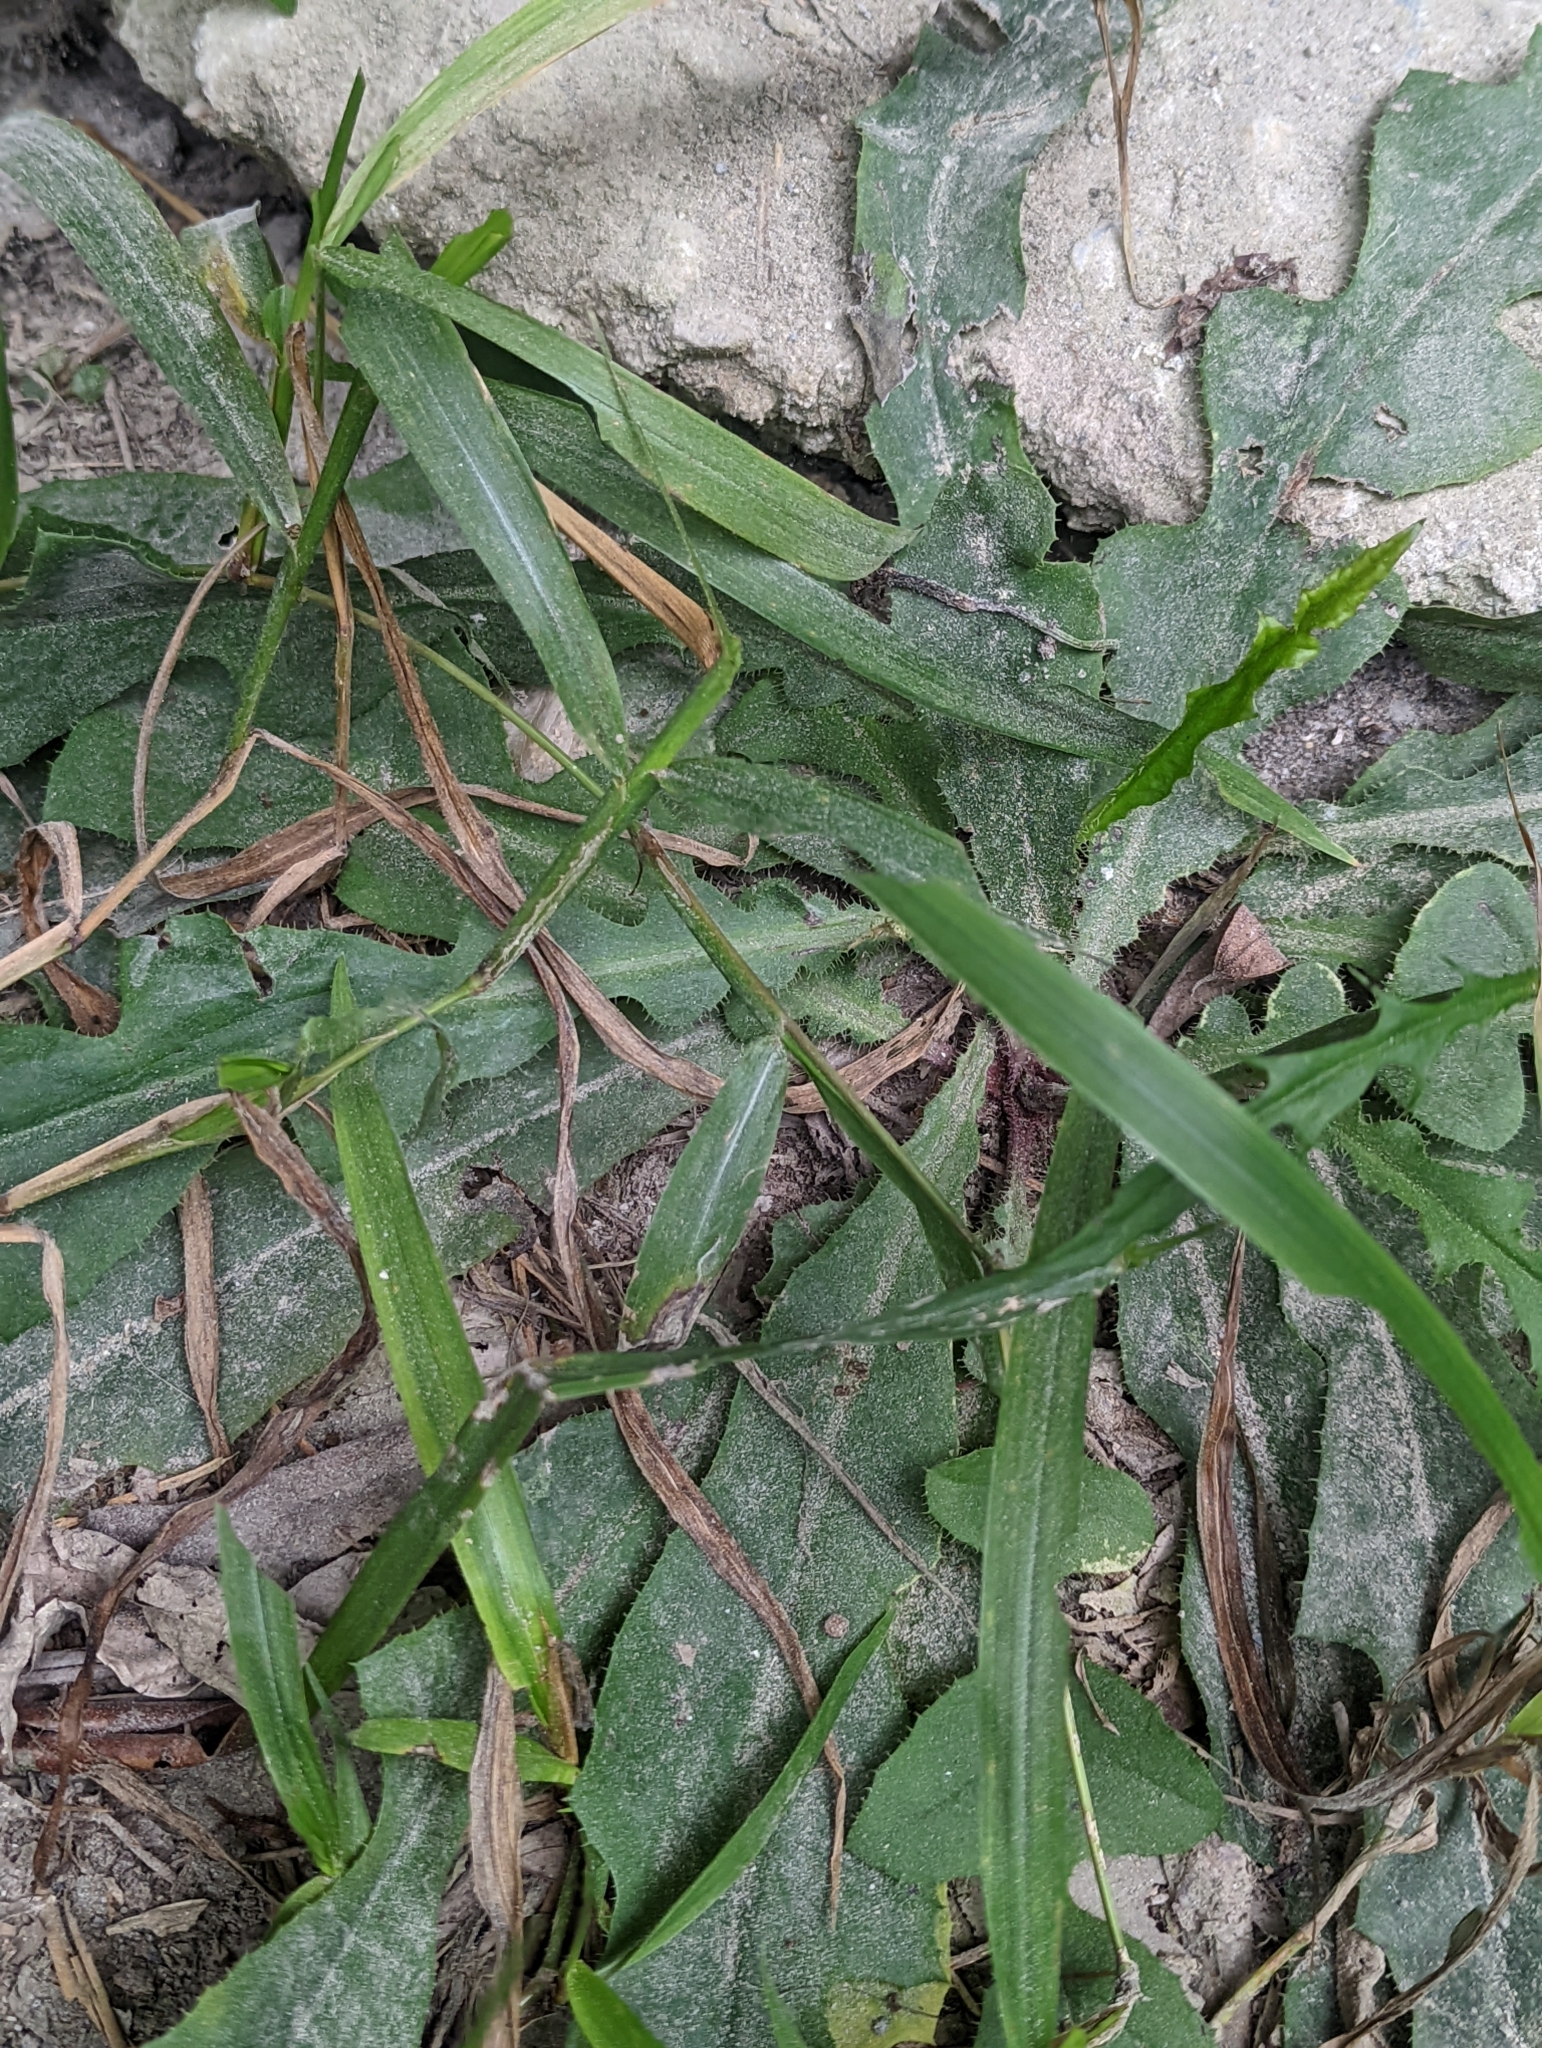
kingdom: Plantae
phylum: Tracheophyta
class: Magnoliopsida
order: Asterales
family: Asteraceae
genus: Ixeridium
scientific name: Ixeridium laevigatum
